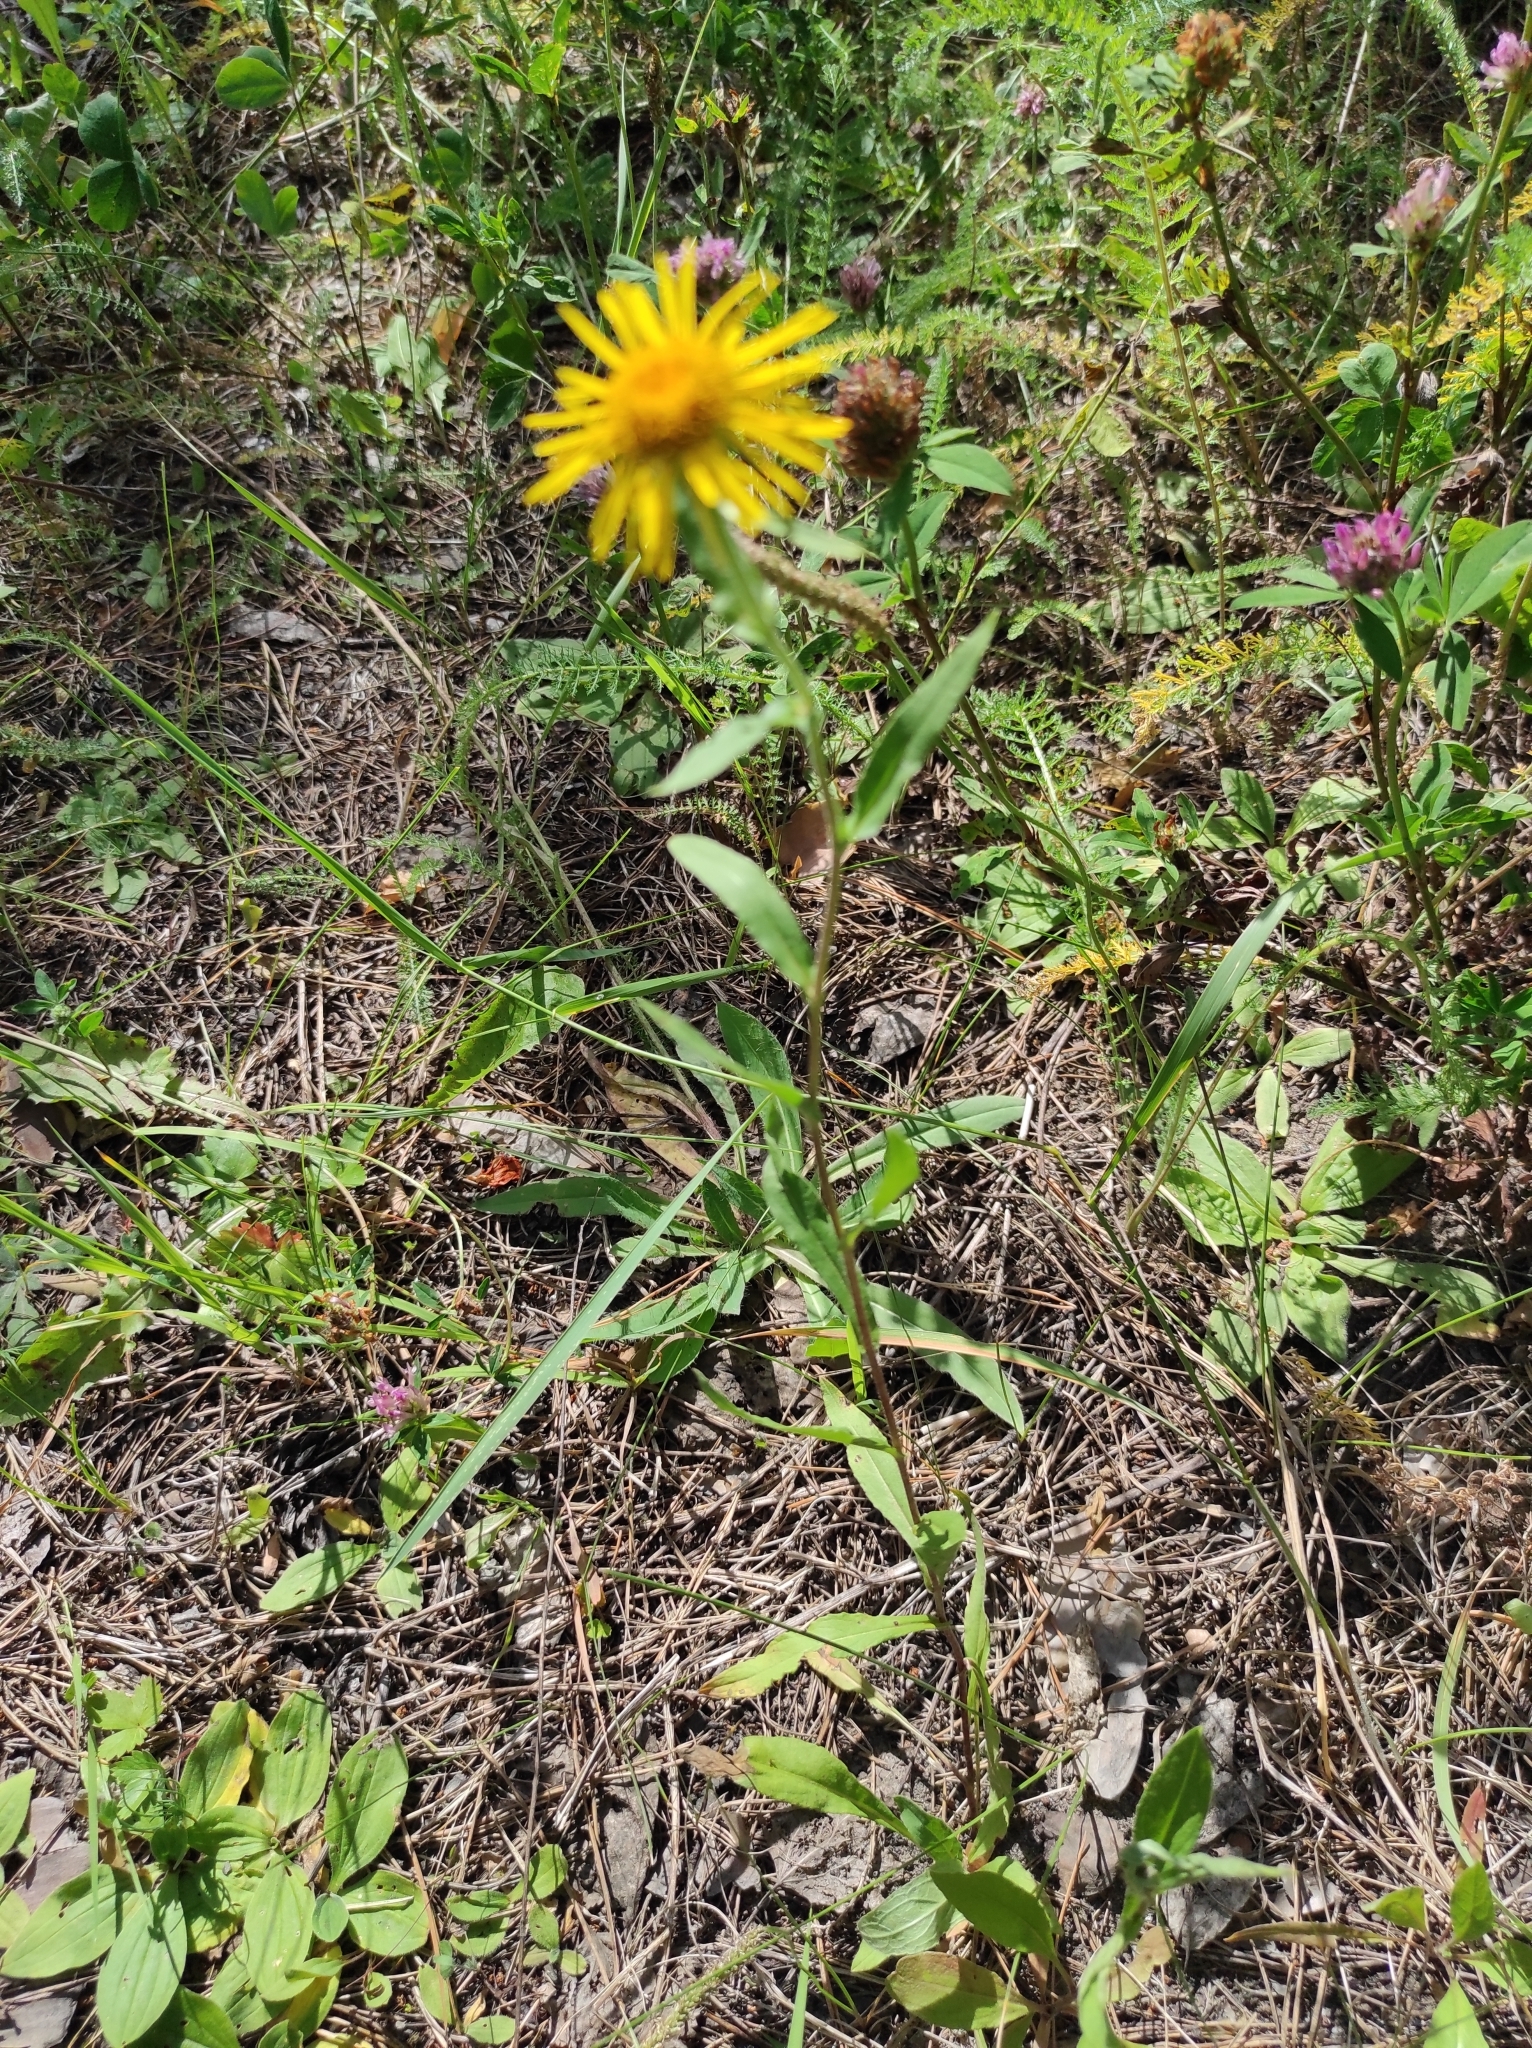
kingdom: Plantae
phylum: Tracheophyta
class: Magnoliopsida
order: Asterales
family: Asteraceae
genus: Pentanema
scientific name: Pentanema britannicum
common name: British elecampane
